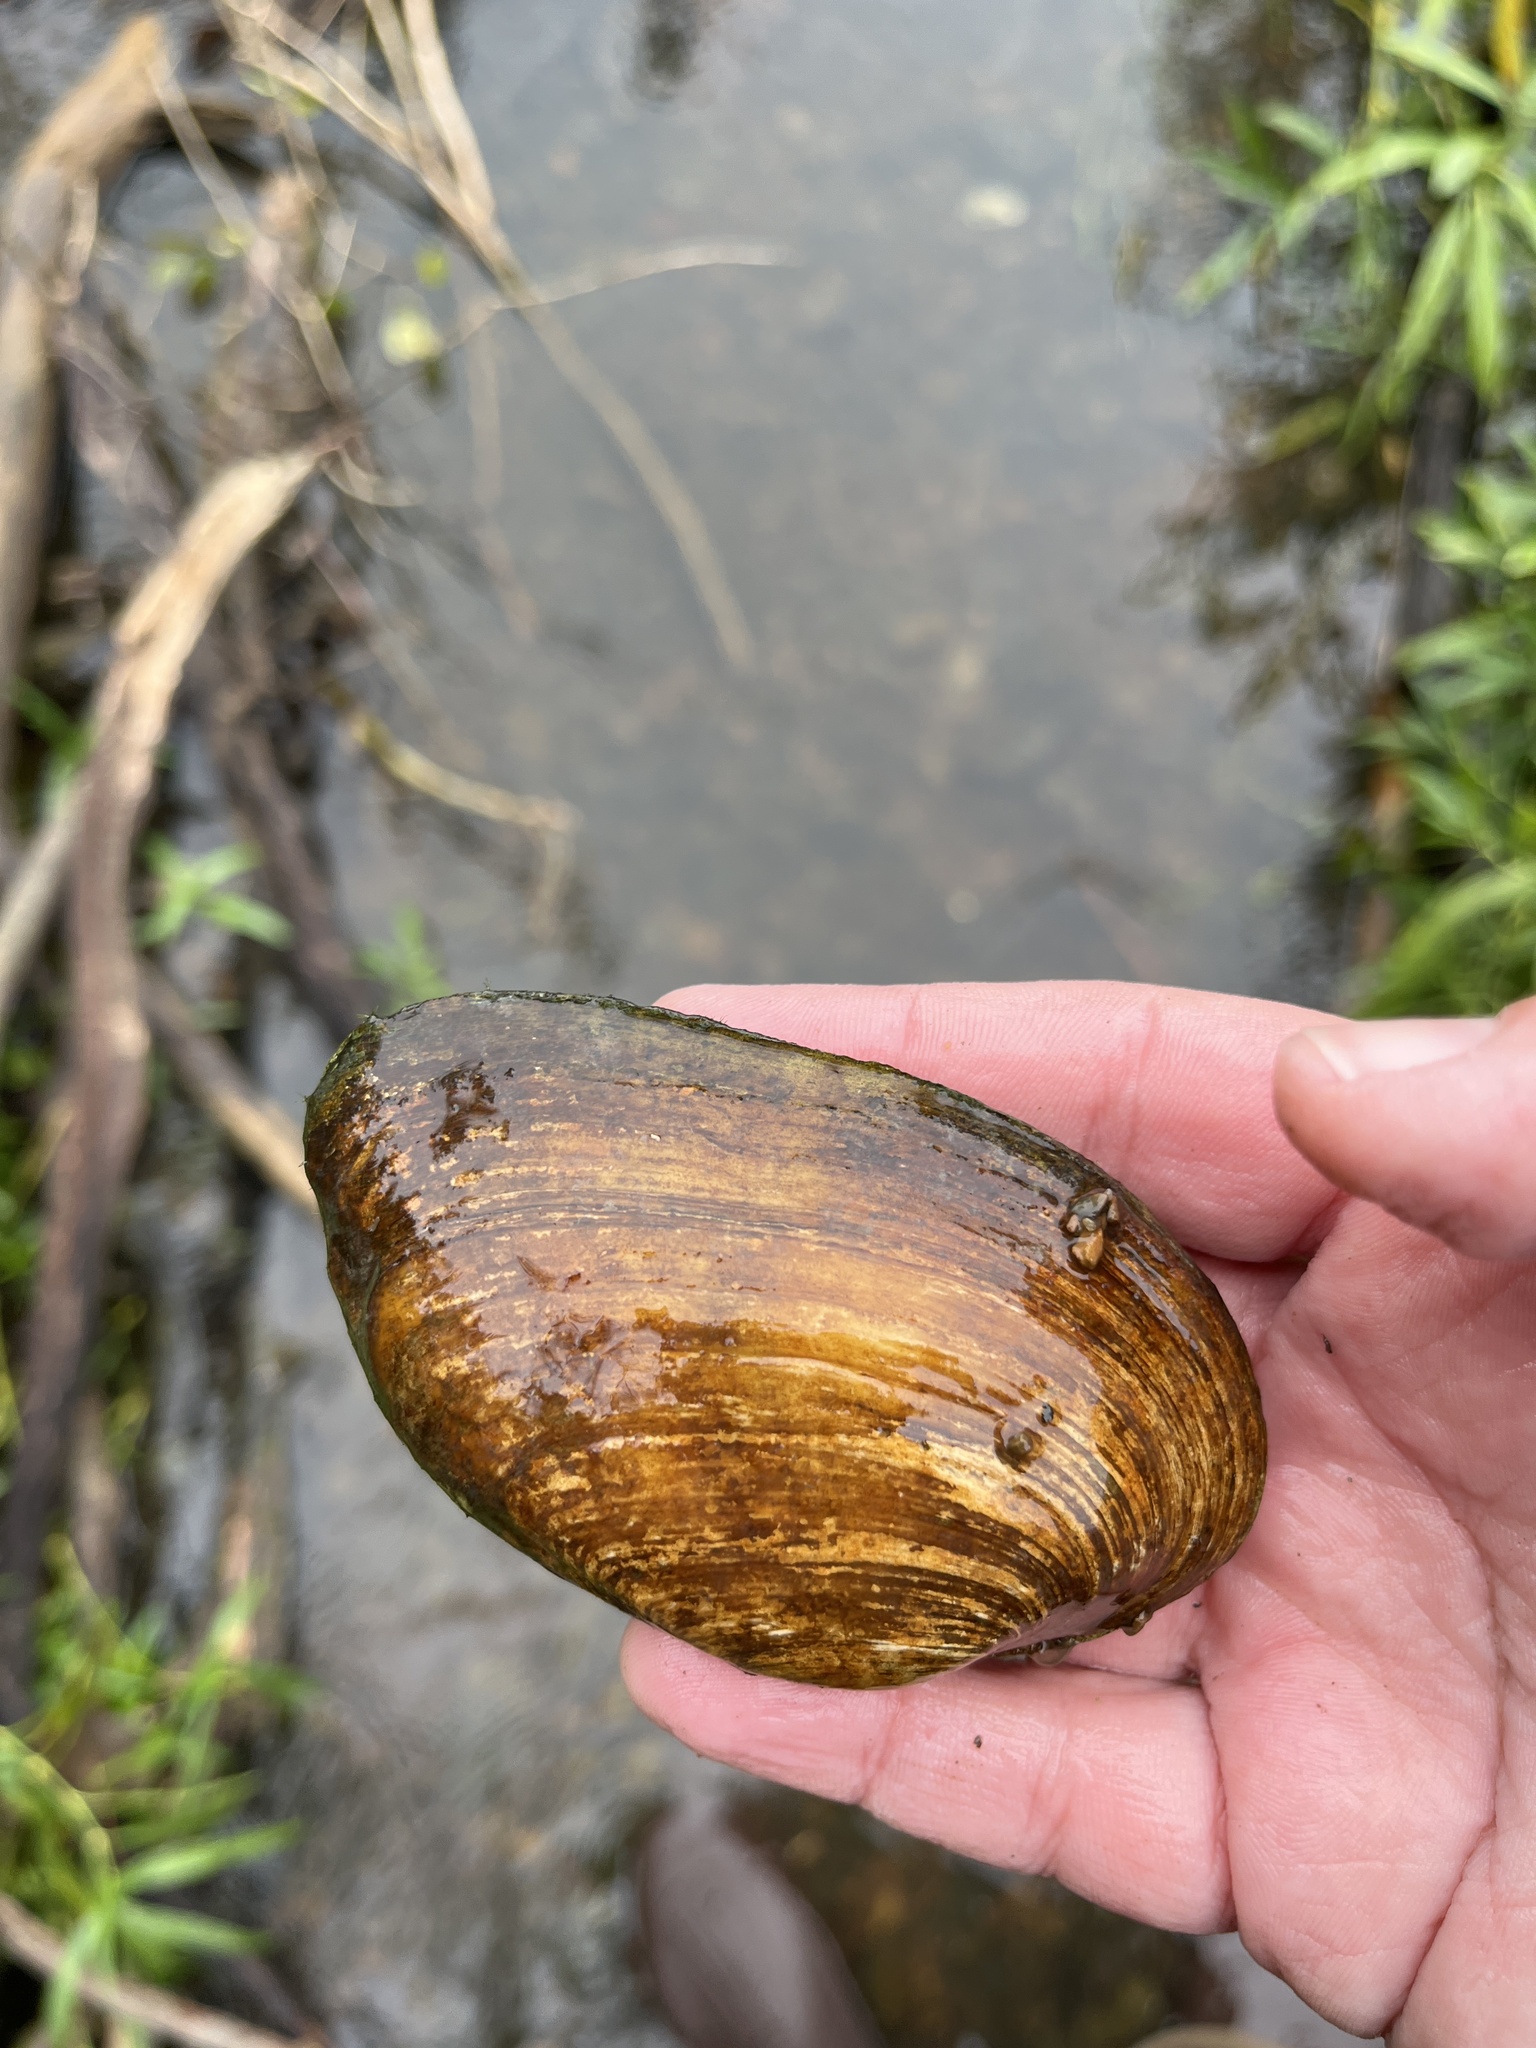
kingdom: Animalia
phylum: Mollusca
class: Bivalvia
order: Unionida
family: Unionidae
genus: Eurynia
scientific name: Eurynia dilatata
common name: Spike
